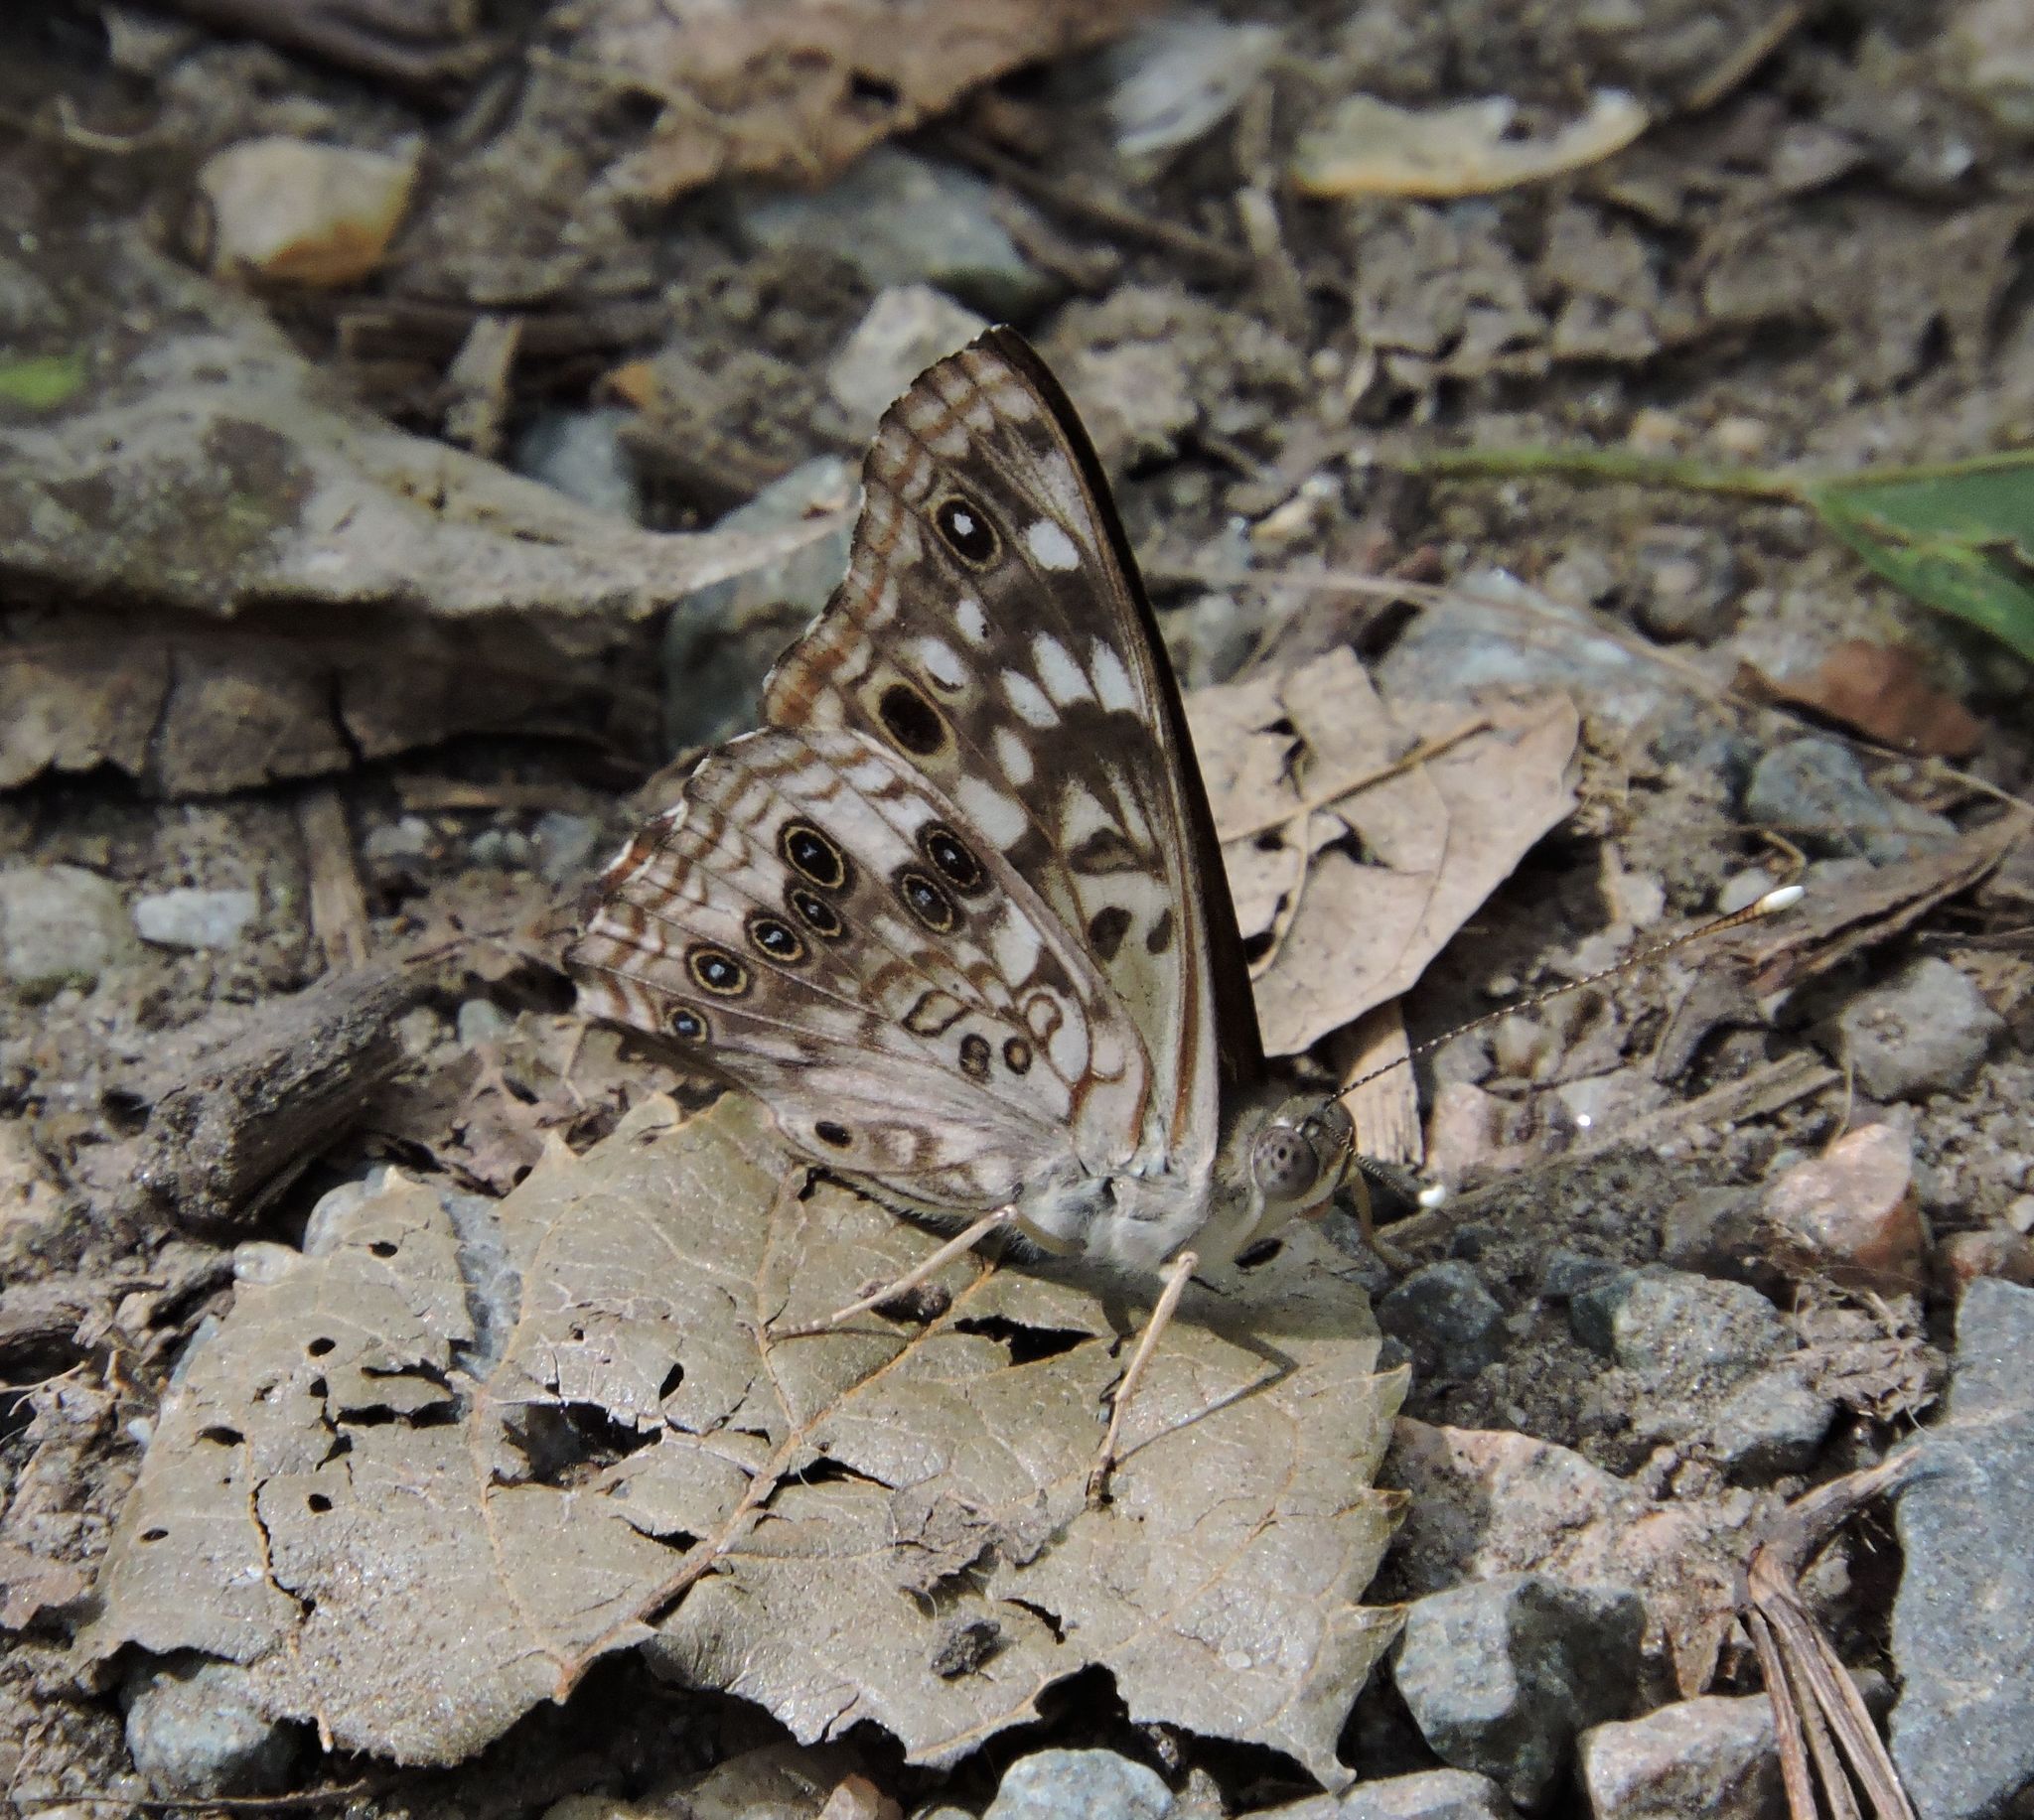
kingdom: Animalia
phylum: Arthropoda
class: Insecta
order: Lepidoptera
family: Nymphalidae
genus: Asterocampa
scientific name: Asterocampa celtis
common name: Hackberry emperor
